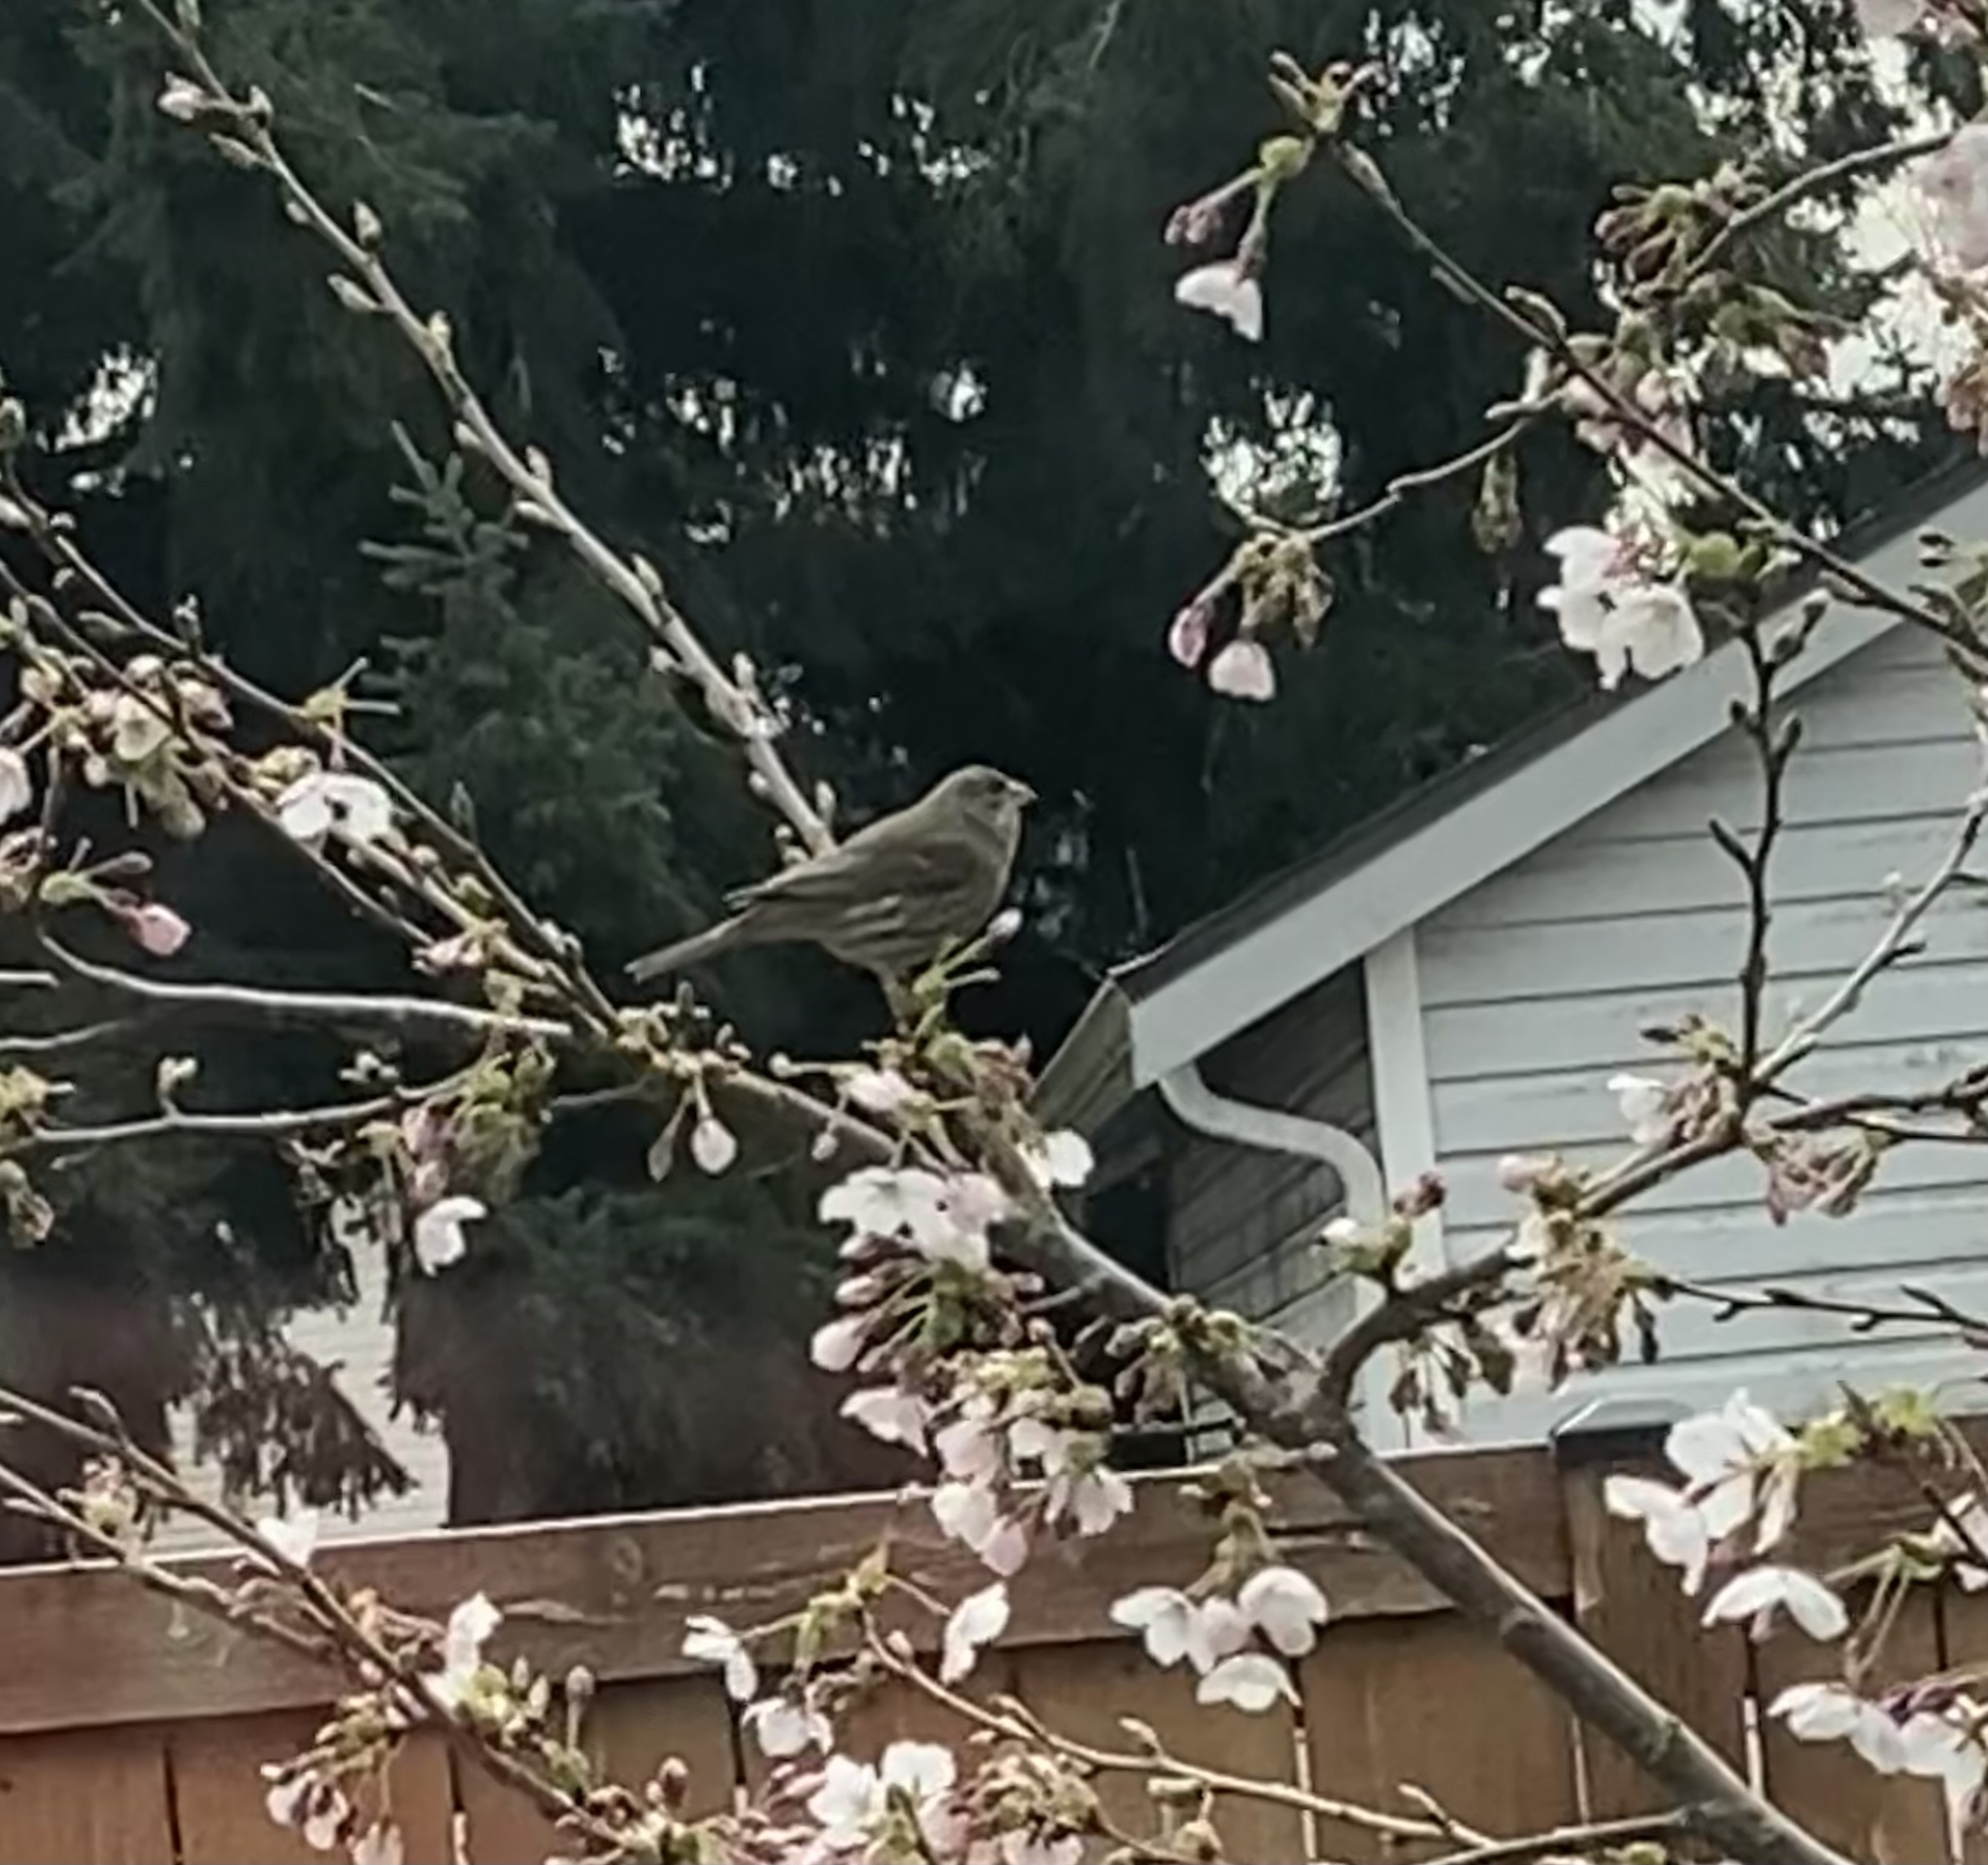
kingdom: Animalia
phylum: Chordata
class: Aves
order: Passeriformes
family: Fringillidae
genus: Haemorhous
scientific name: Haemorhous mexicanus
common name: House finch
